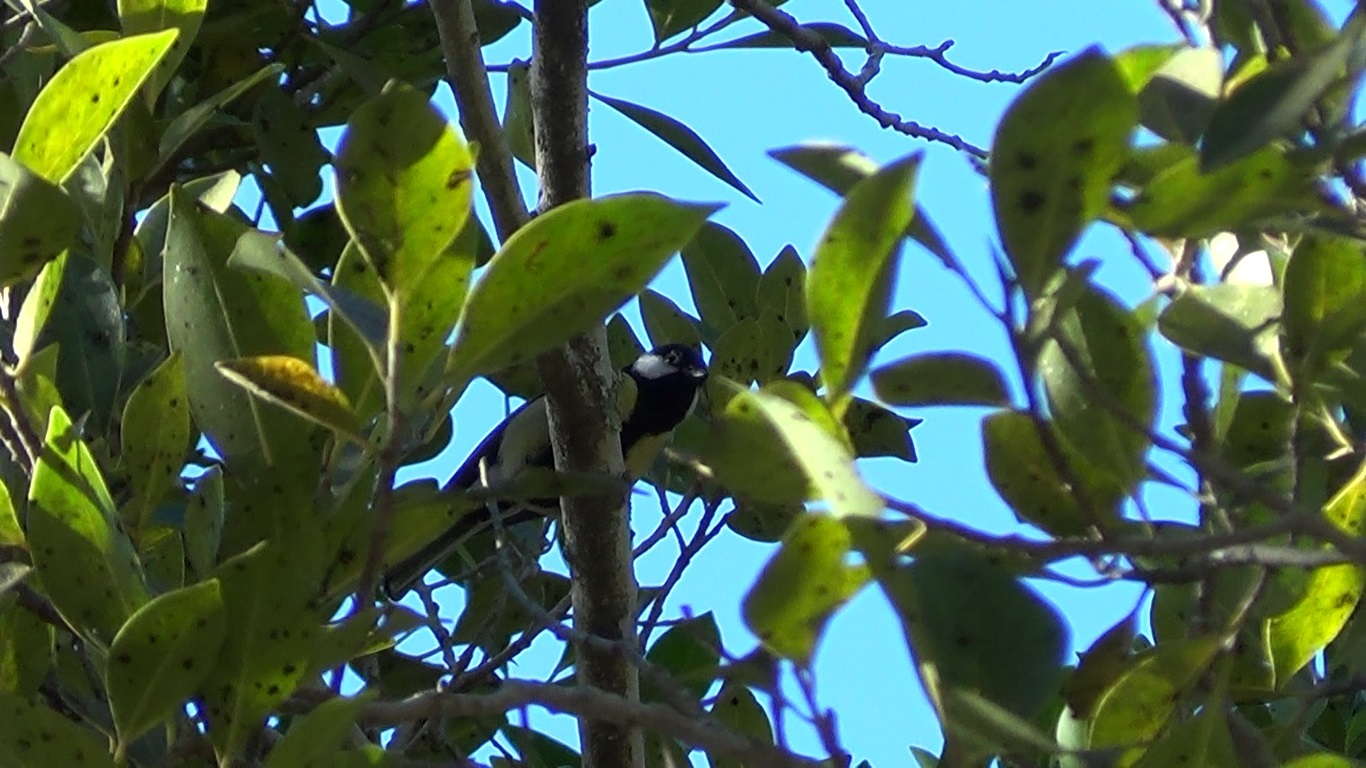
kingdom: Animalia
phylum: Chordata
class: Aves
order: Passeriformes
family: Paridae
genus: Parus
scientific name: Parus major
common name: Great tit
